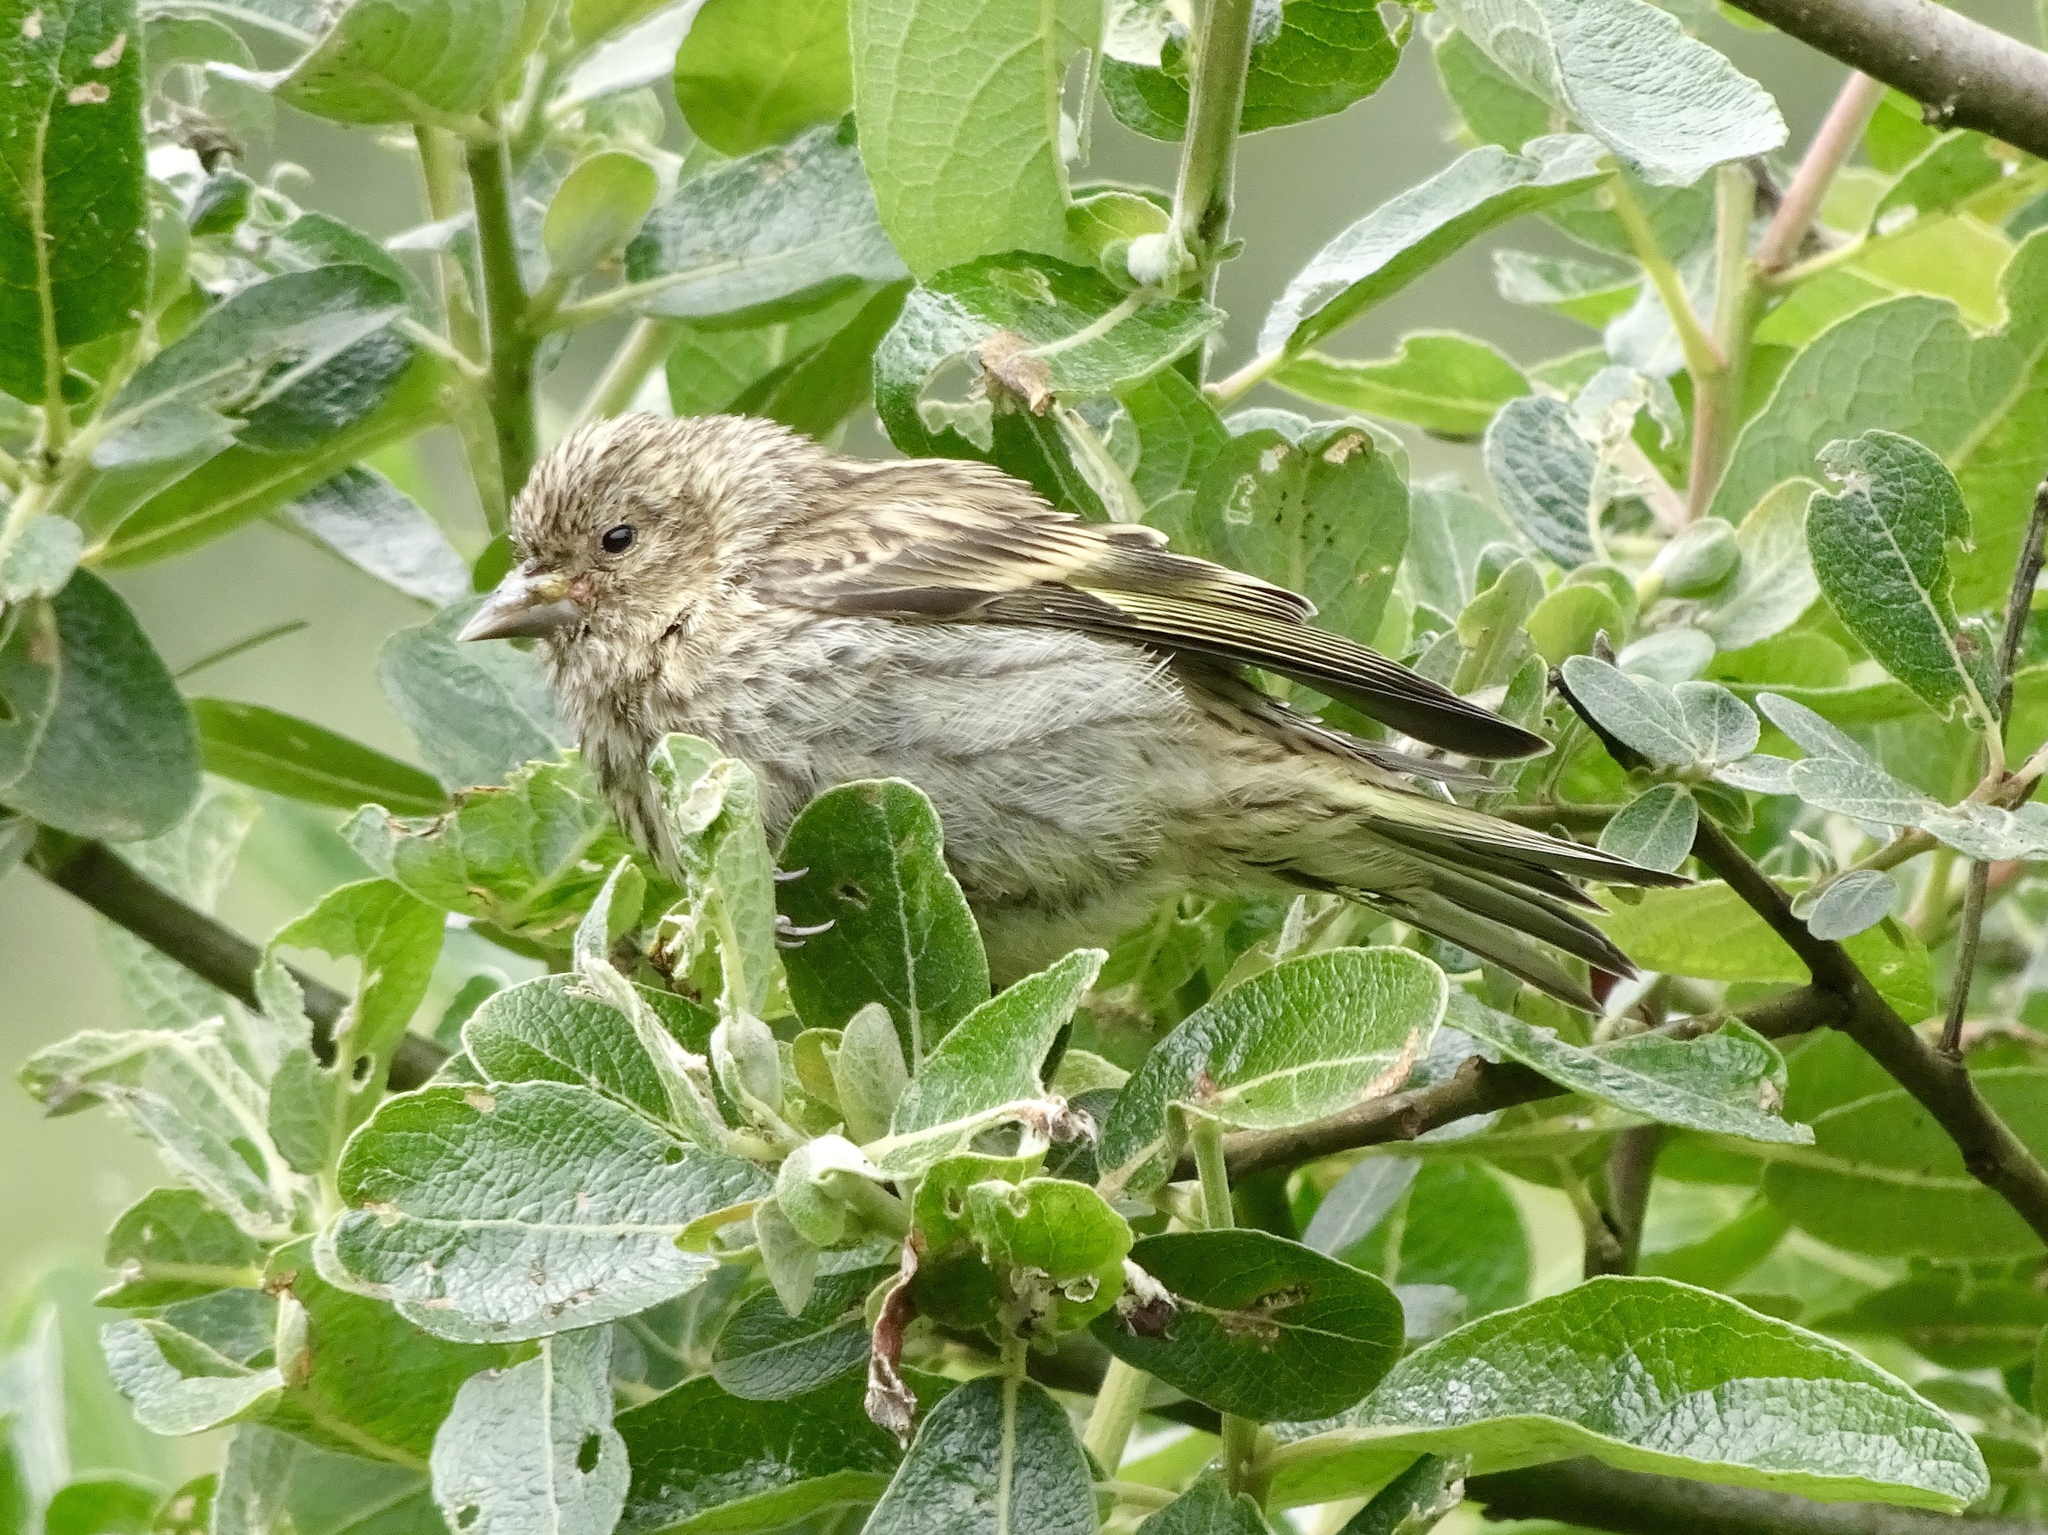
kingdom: Animalia
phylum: Chordata
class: Aves
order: Passeriformes
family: Fringillidae
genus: Spinus
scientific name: Spinus pinus
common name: Pine siskin
